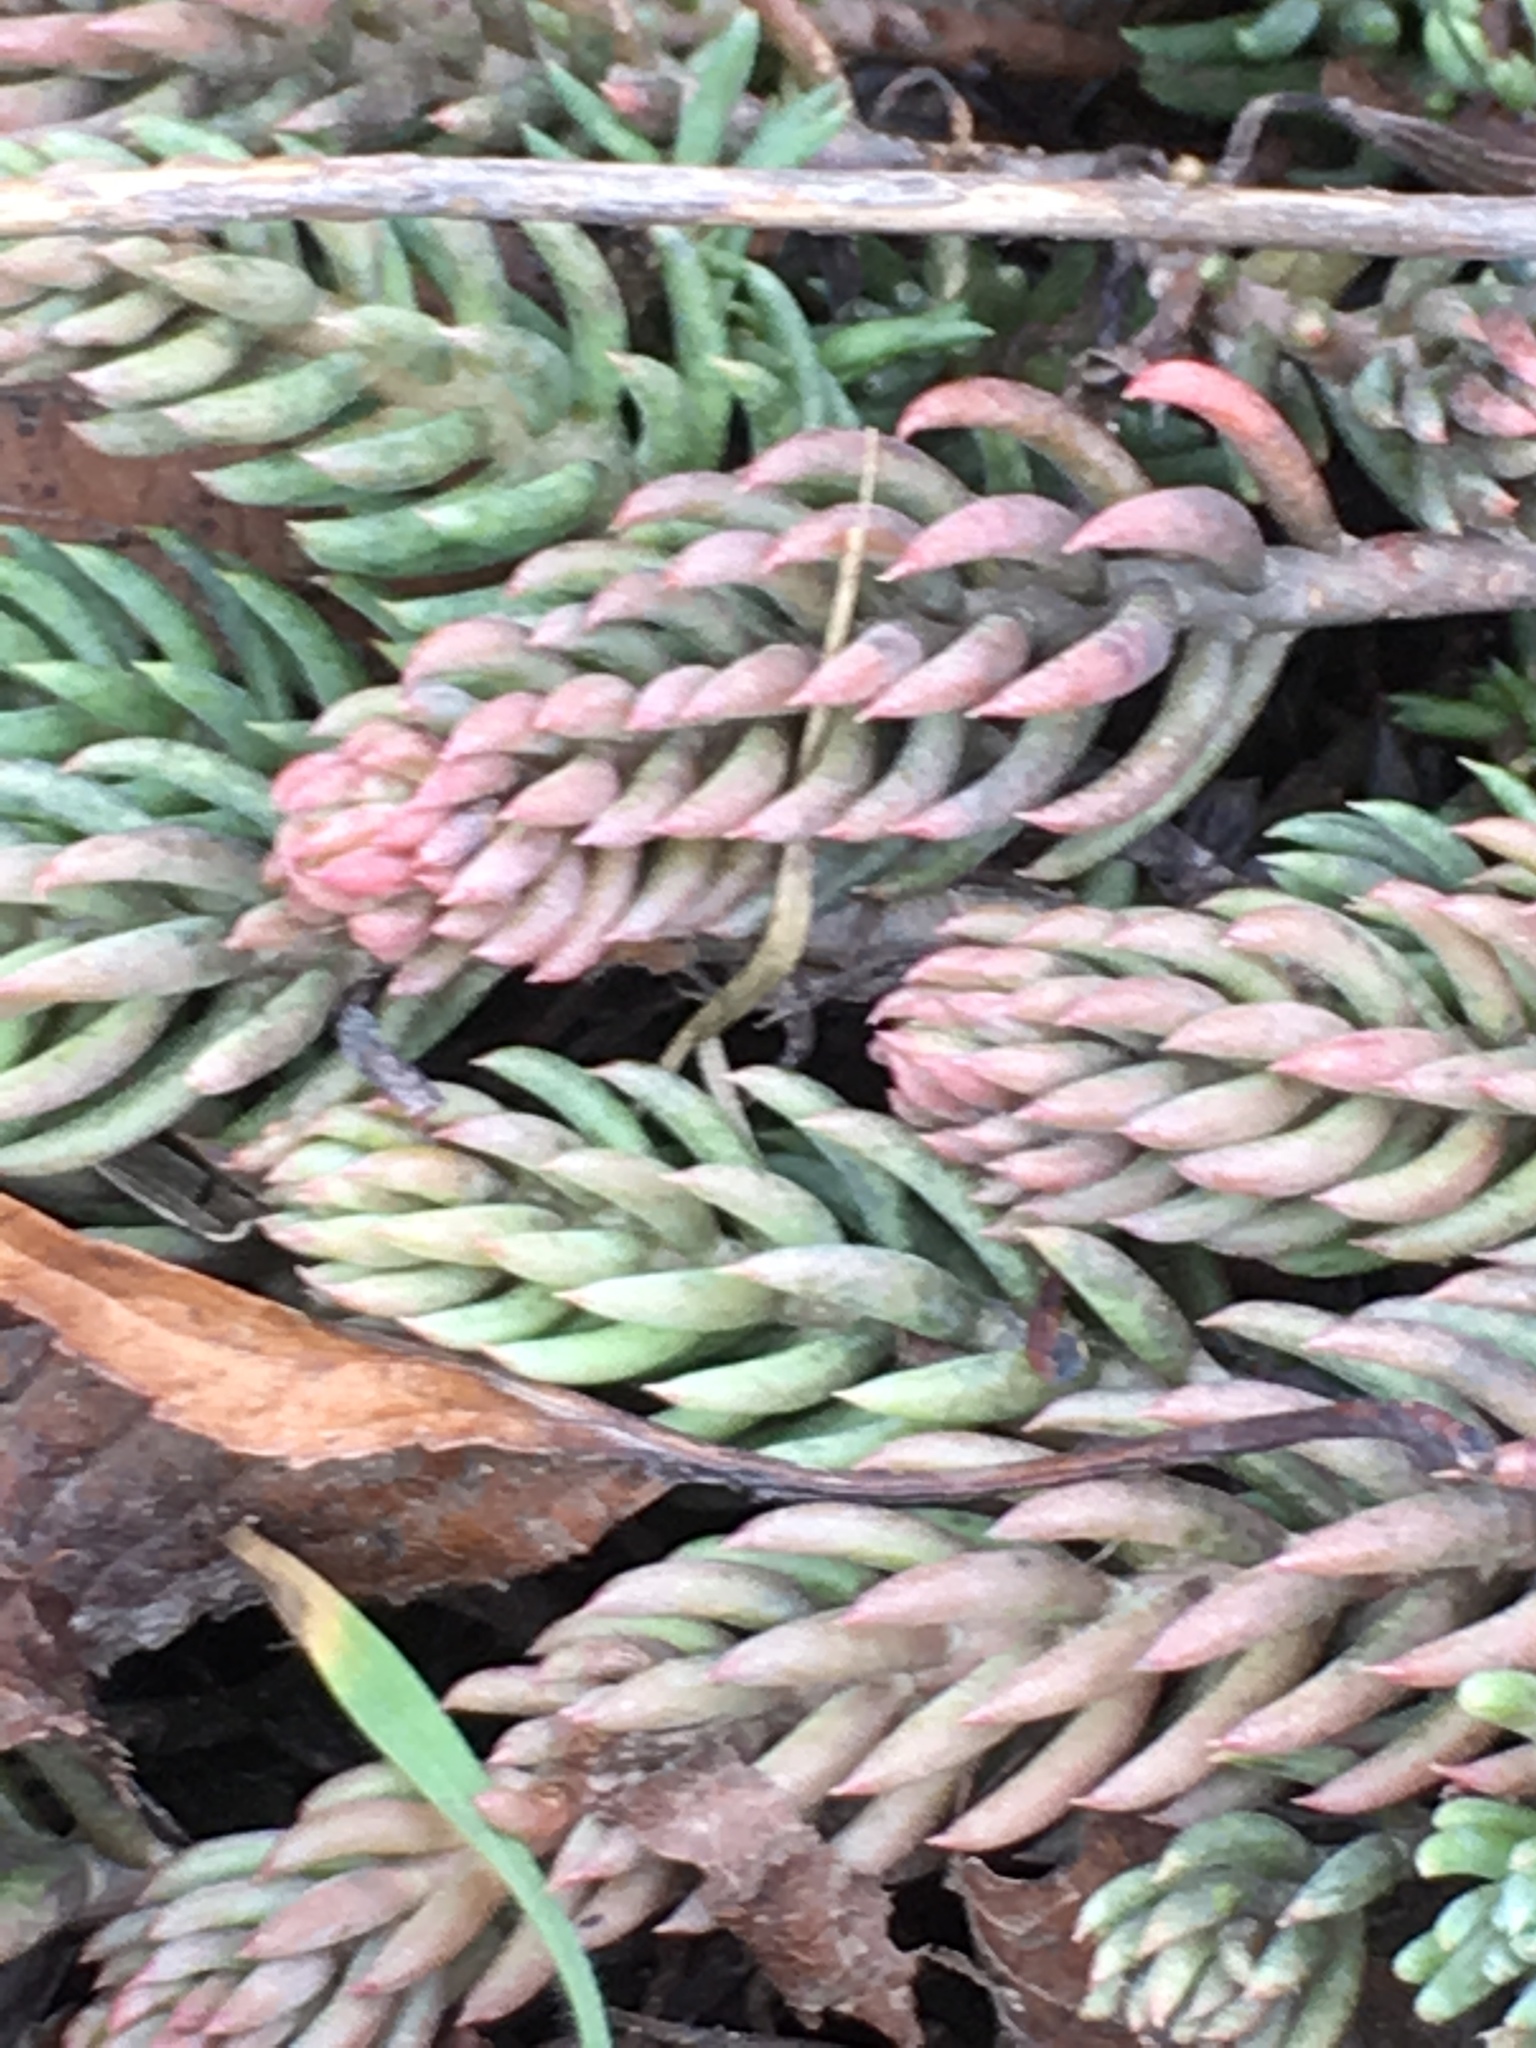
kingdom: Plantae
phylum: Tracheophyta
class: Magnoliopsida
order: Saxifragales
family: Crassulaceae
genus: Petrosedum
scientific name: Petrosedum rupestre
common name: Jenny's stonecrop
